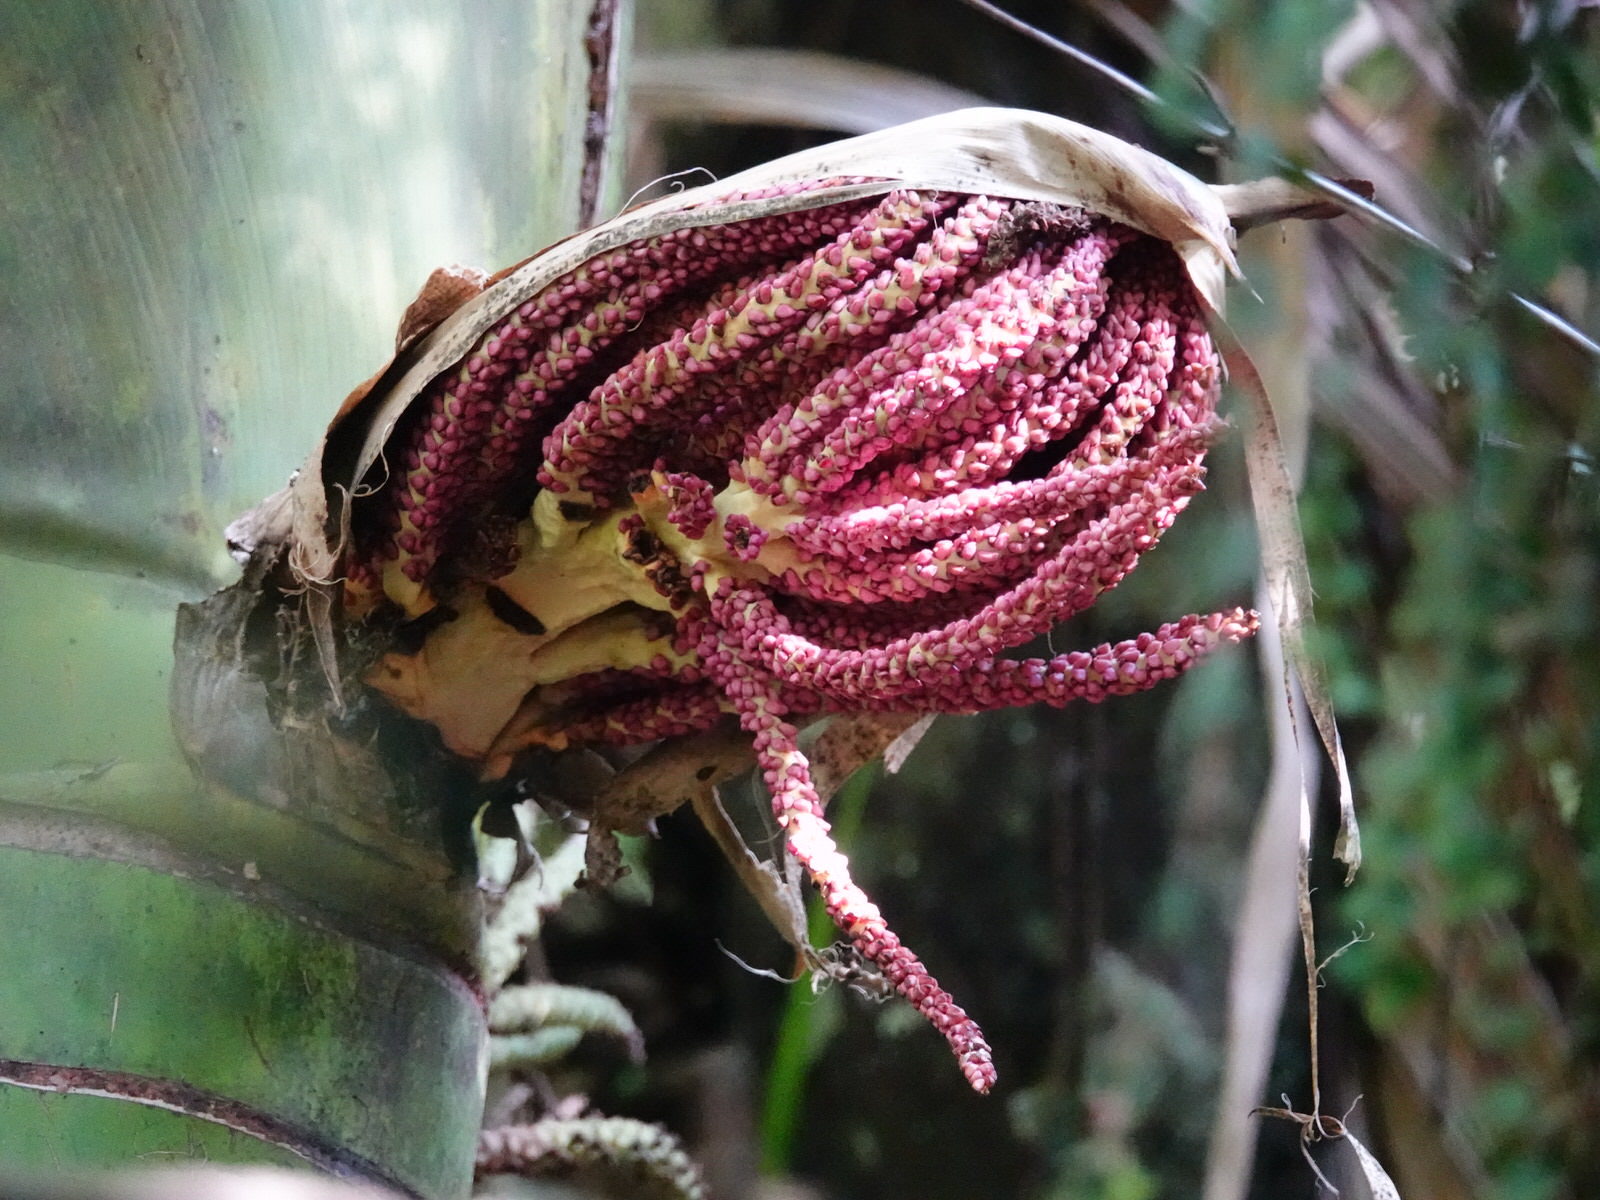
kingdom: Plantae
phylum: Tracheophyta
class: Liliopsida
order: Arecales
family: Arecaceae
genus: Rhopalostylis
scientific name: Rhopalostylis sapida
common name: Feather-duster palm
